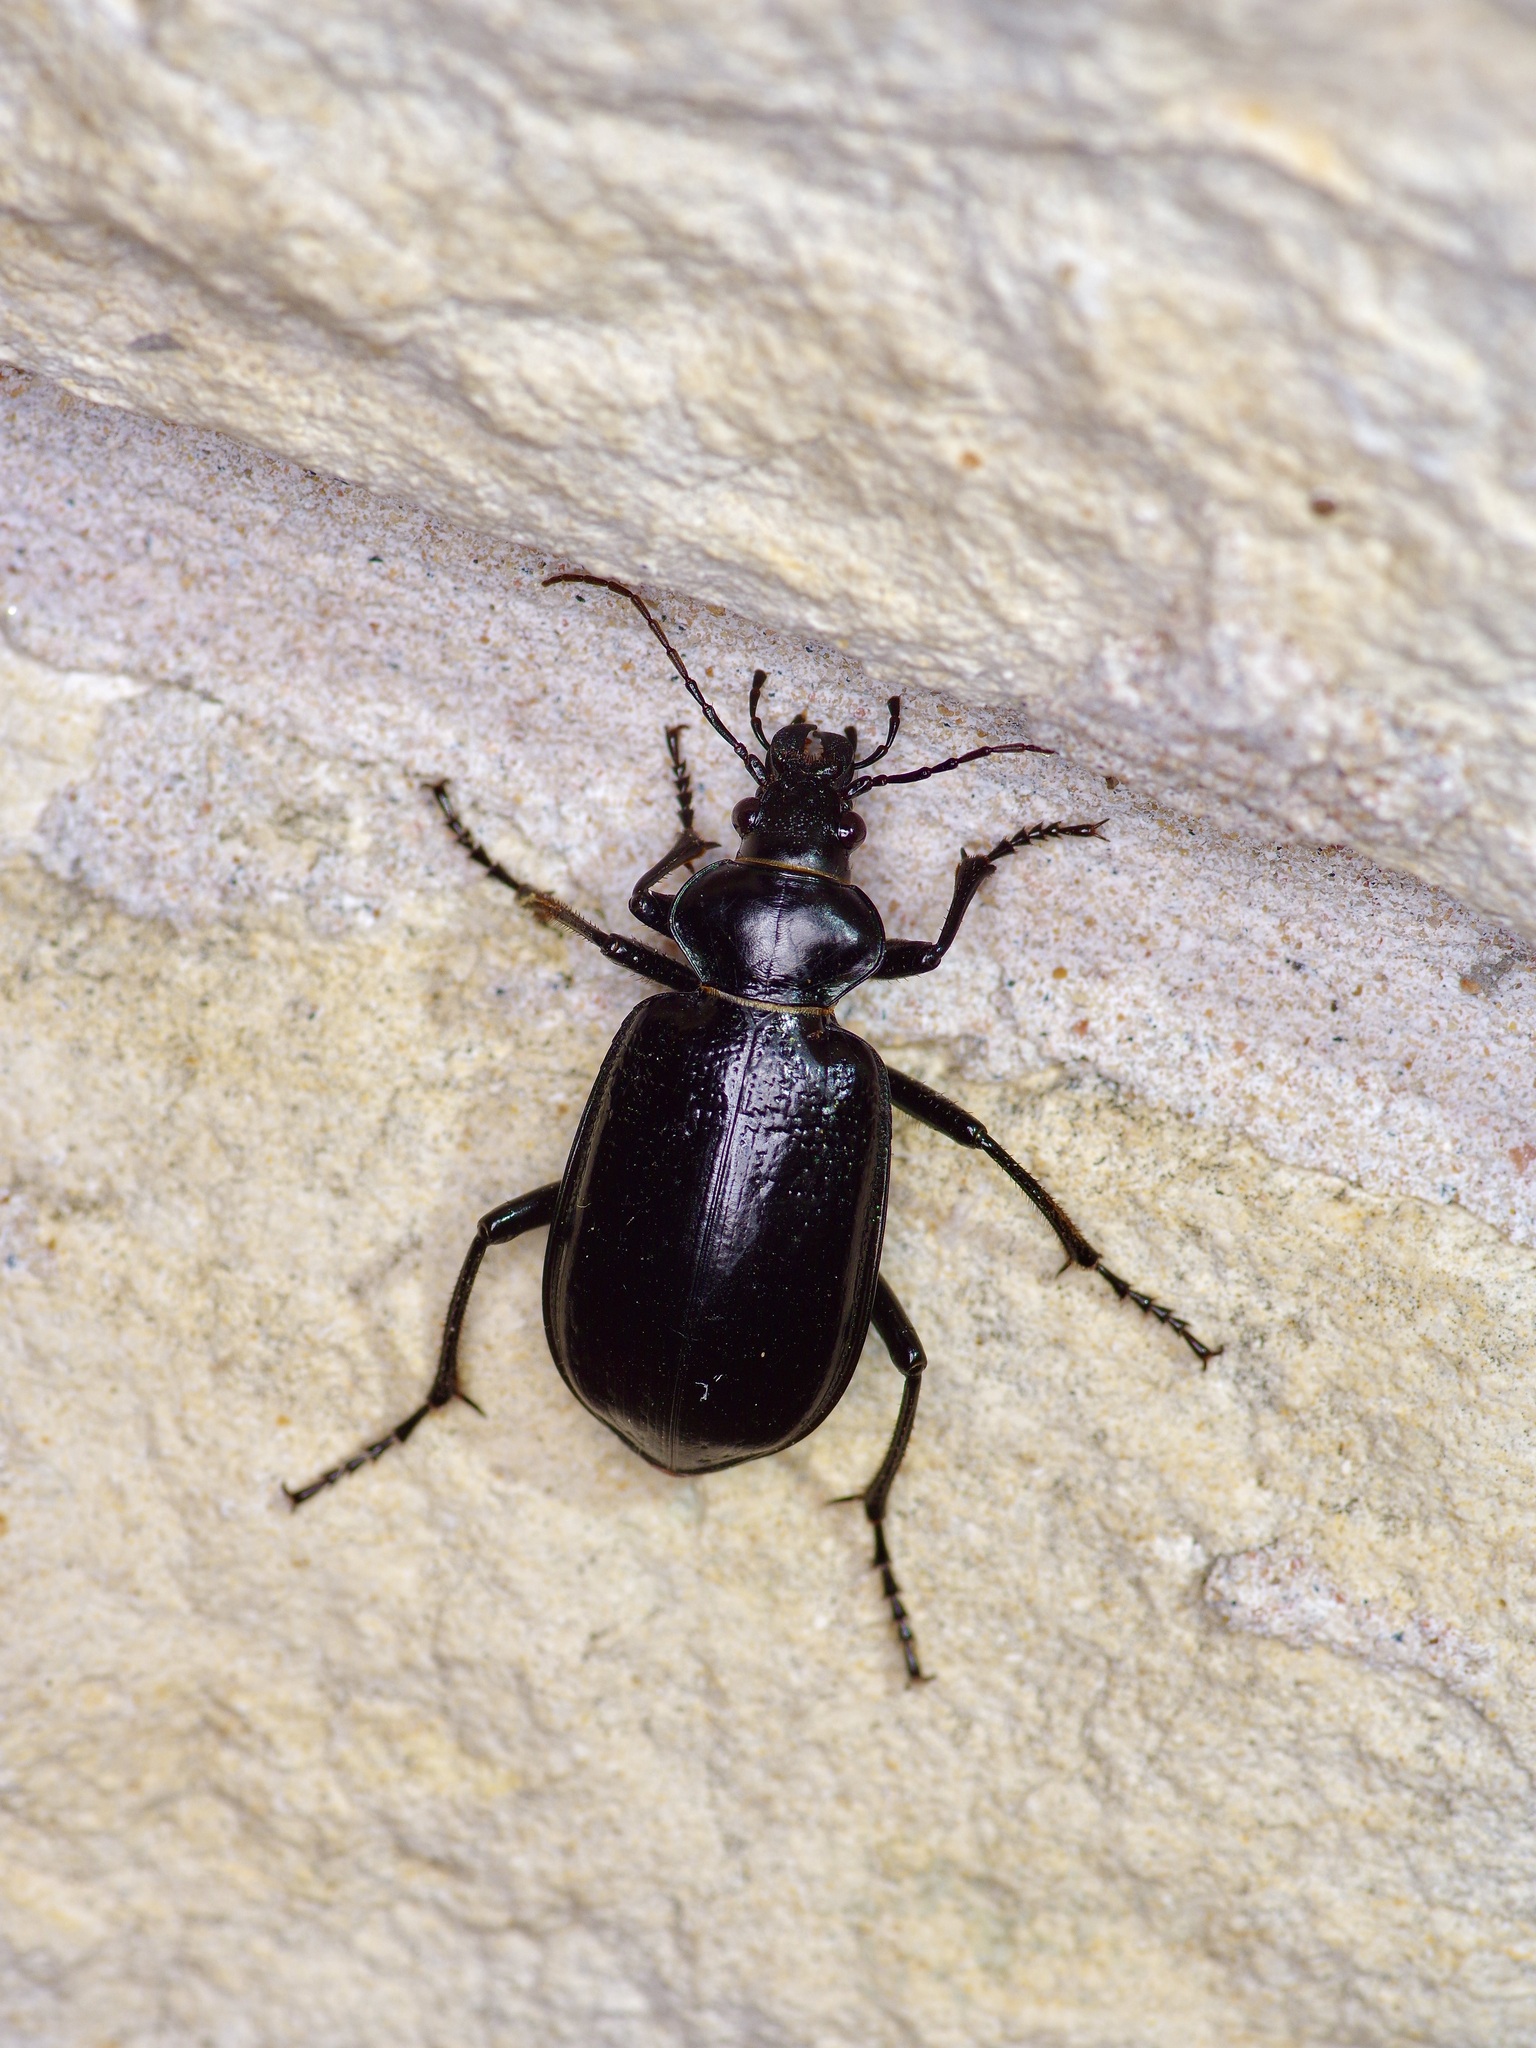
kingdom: Animalia
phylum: Arthropoda
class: Insecta
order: Coleoptera
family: Carabidae
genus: Calosoma
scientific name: Calosoma marginale
